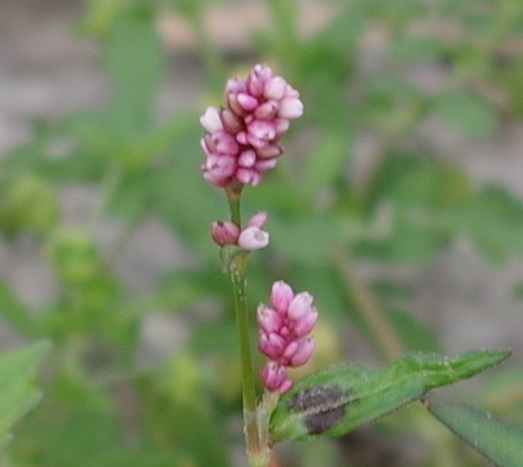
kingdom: Plantae
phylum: Tracheophyta
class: Magnoliopsida
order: Caryophyllales
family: Polygonaceae
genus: Persicaria
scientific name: Persicaria maculosa
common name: Redshank
